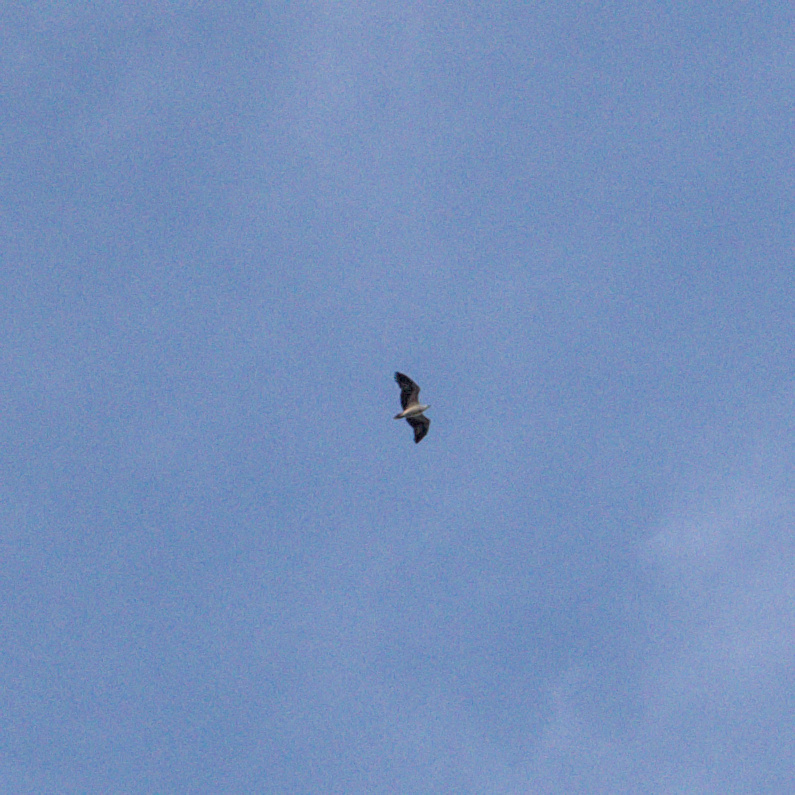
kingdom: Animalia
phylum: Chordata
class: Aves
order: Accipitriformes
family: Accipitridae
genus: Haliaeetus
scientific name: Haliaeetus leucogaster
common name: White-bellied sea eagle
